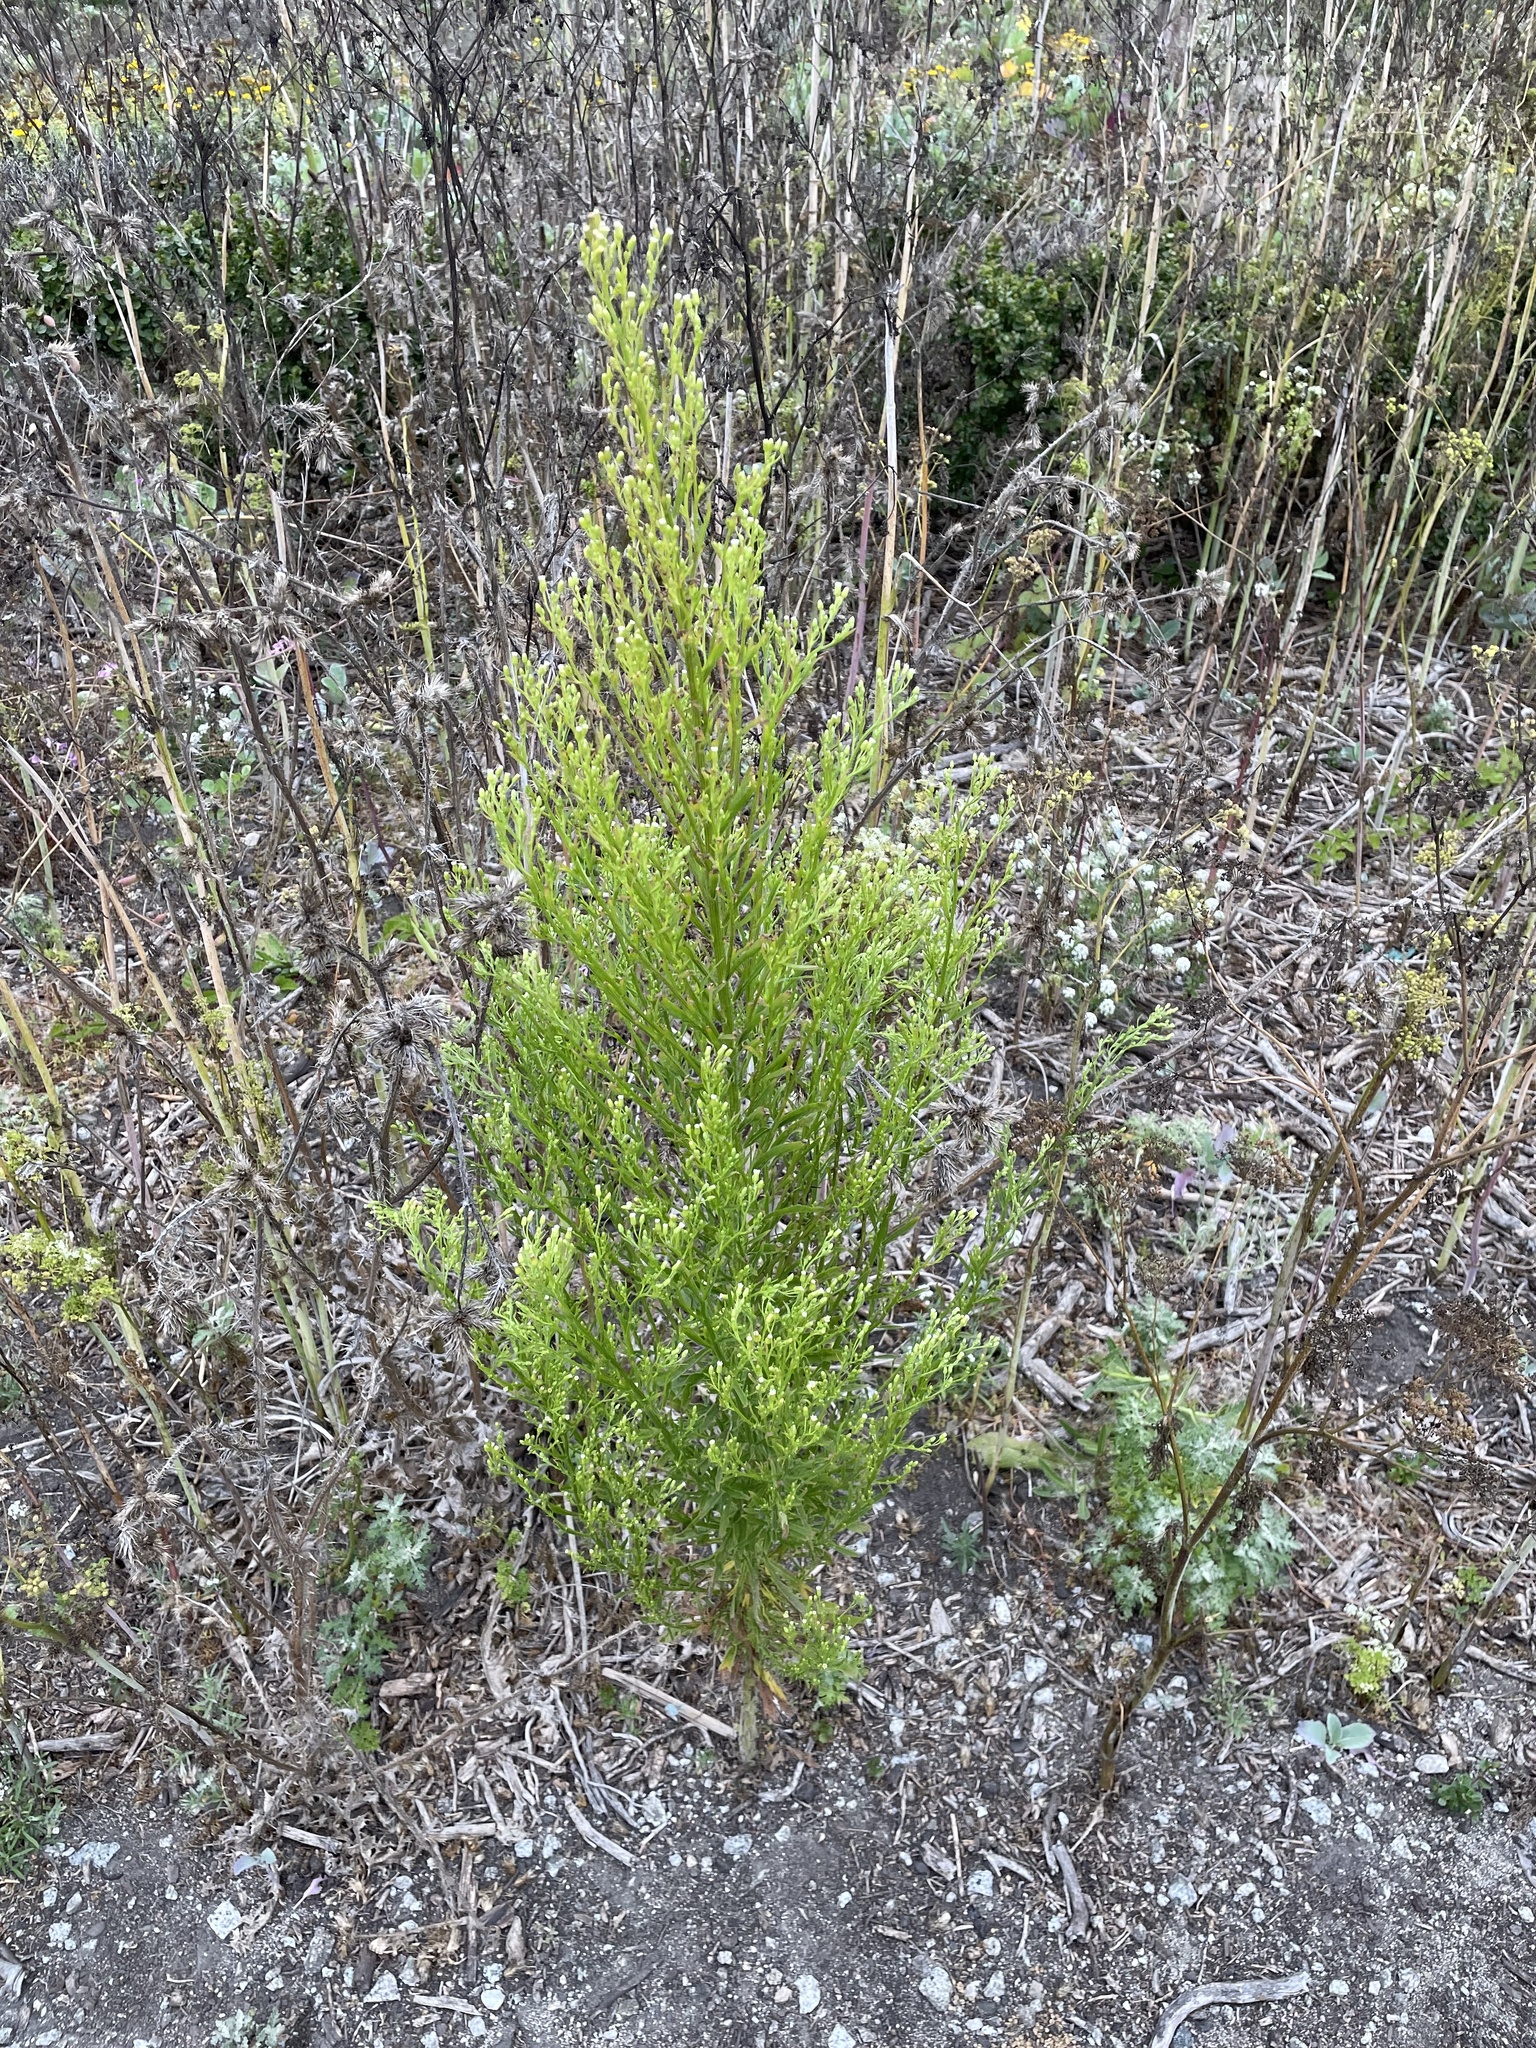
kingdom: Plantae
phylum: Tracheophyta
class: Magnoliopsida
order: Asterales
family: Asteraceae
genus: Erigeron
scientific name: Erigeron canadensis
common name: Canadian fleabane
